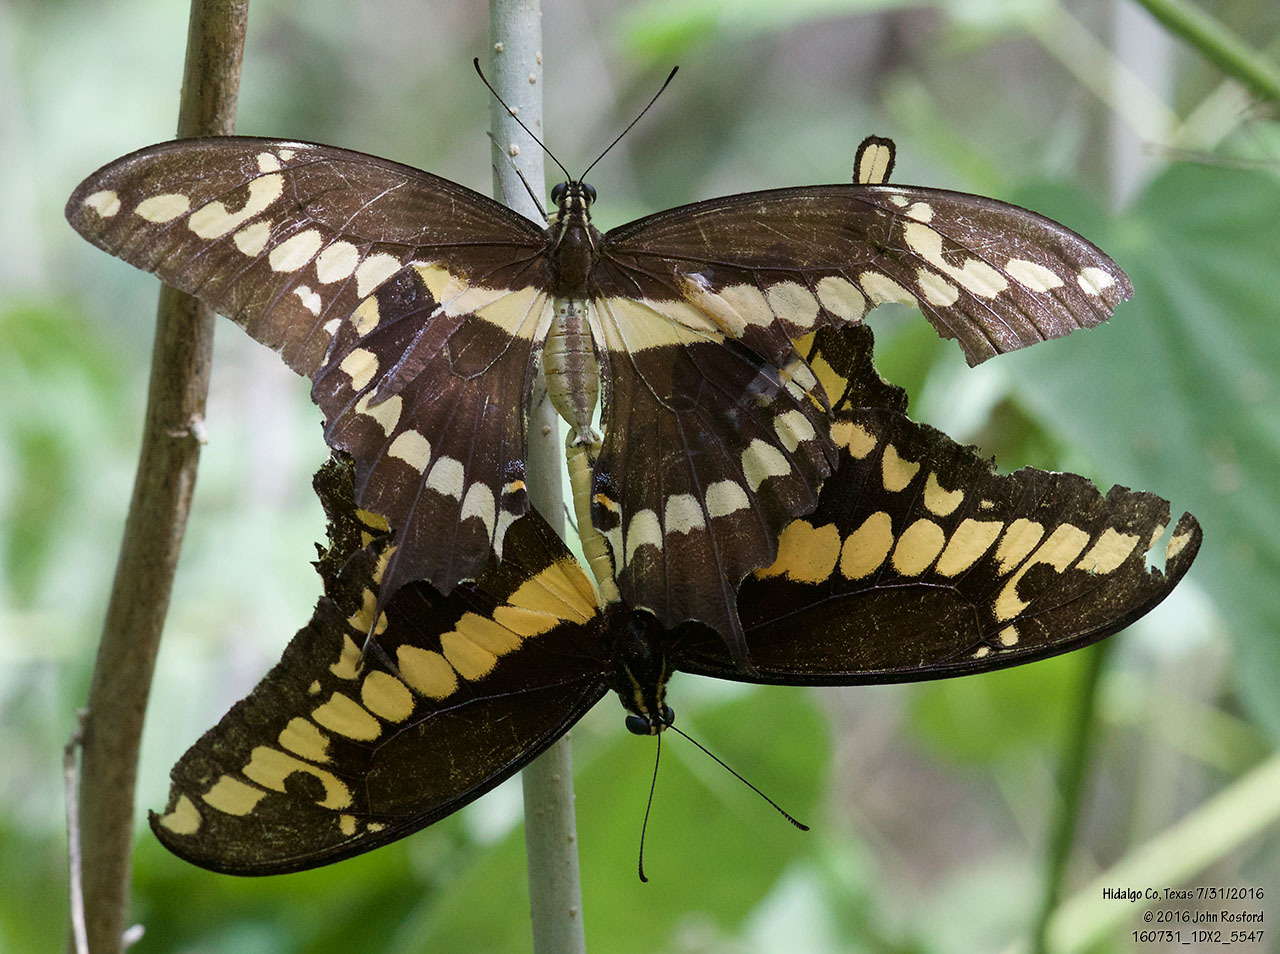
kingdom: Animalia
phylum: Arthropoda
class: Insecta
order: Lepidoptera
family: Papilionidae
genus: Papilio
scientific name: Papilio rumiko
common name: Western giant swallowtail
